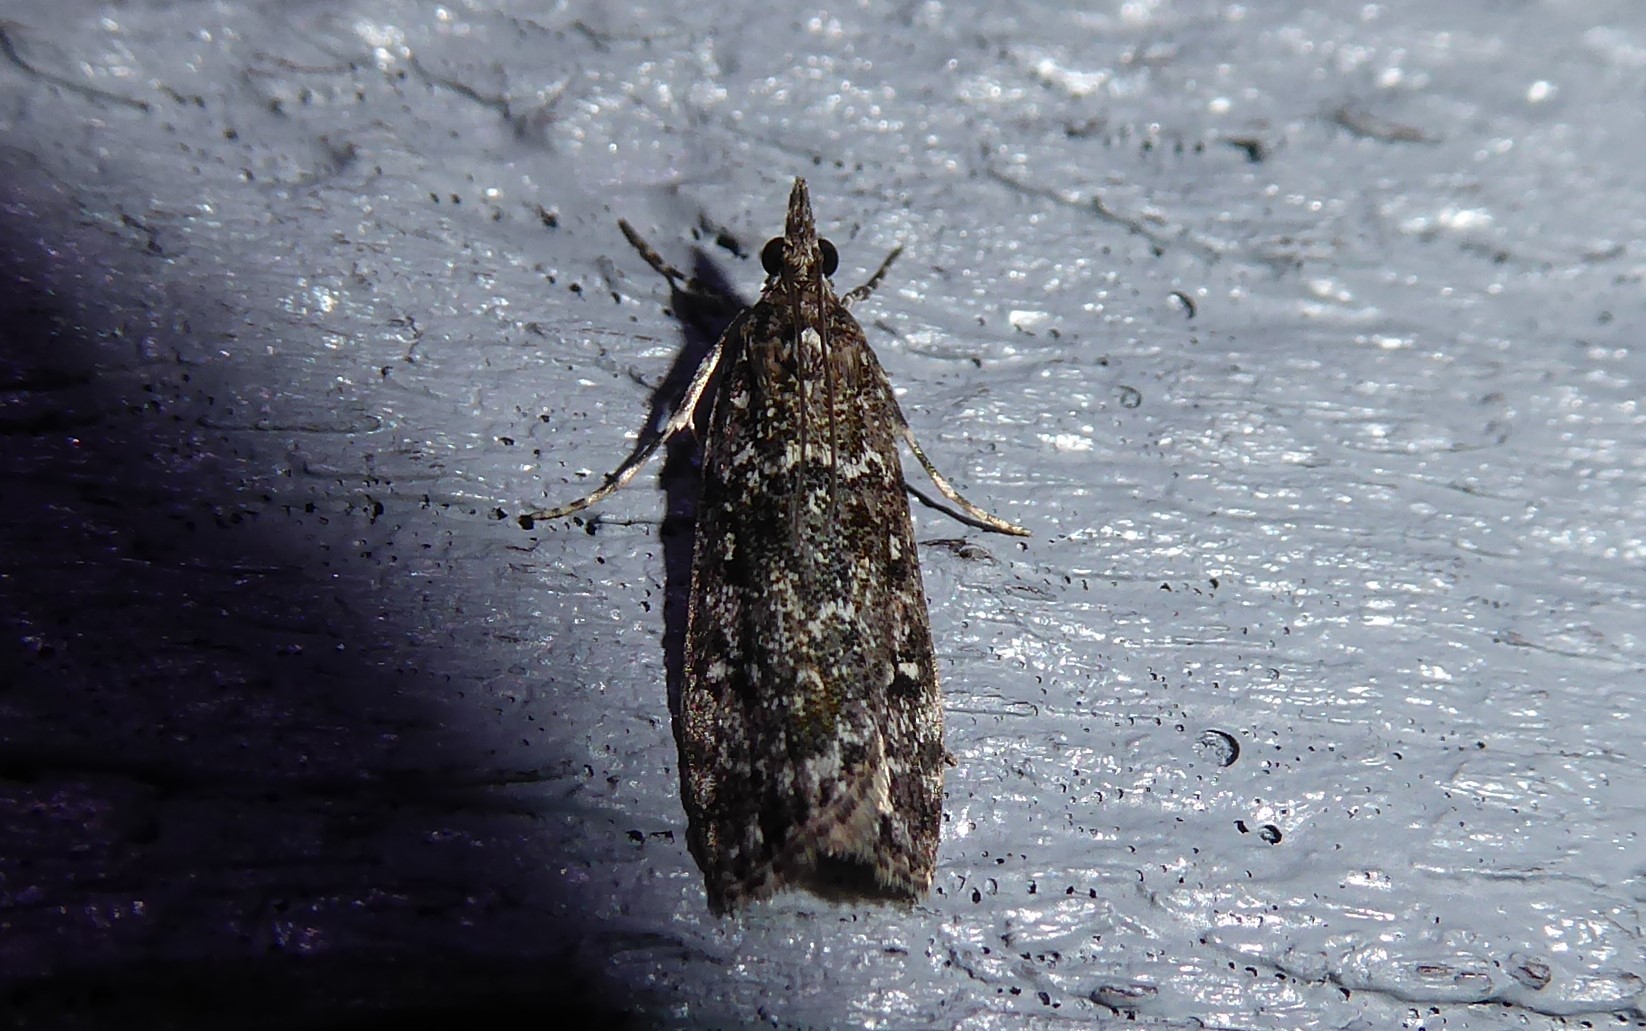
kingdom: Animalia
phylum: Arthropoda
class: Insecta
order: Lepidoptera
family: Crambidae
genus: Eudonia
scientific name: Eudonia philerga
